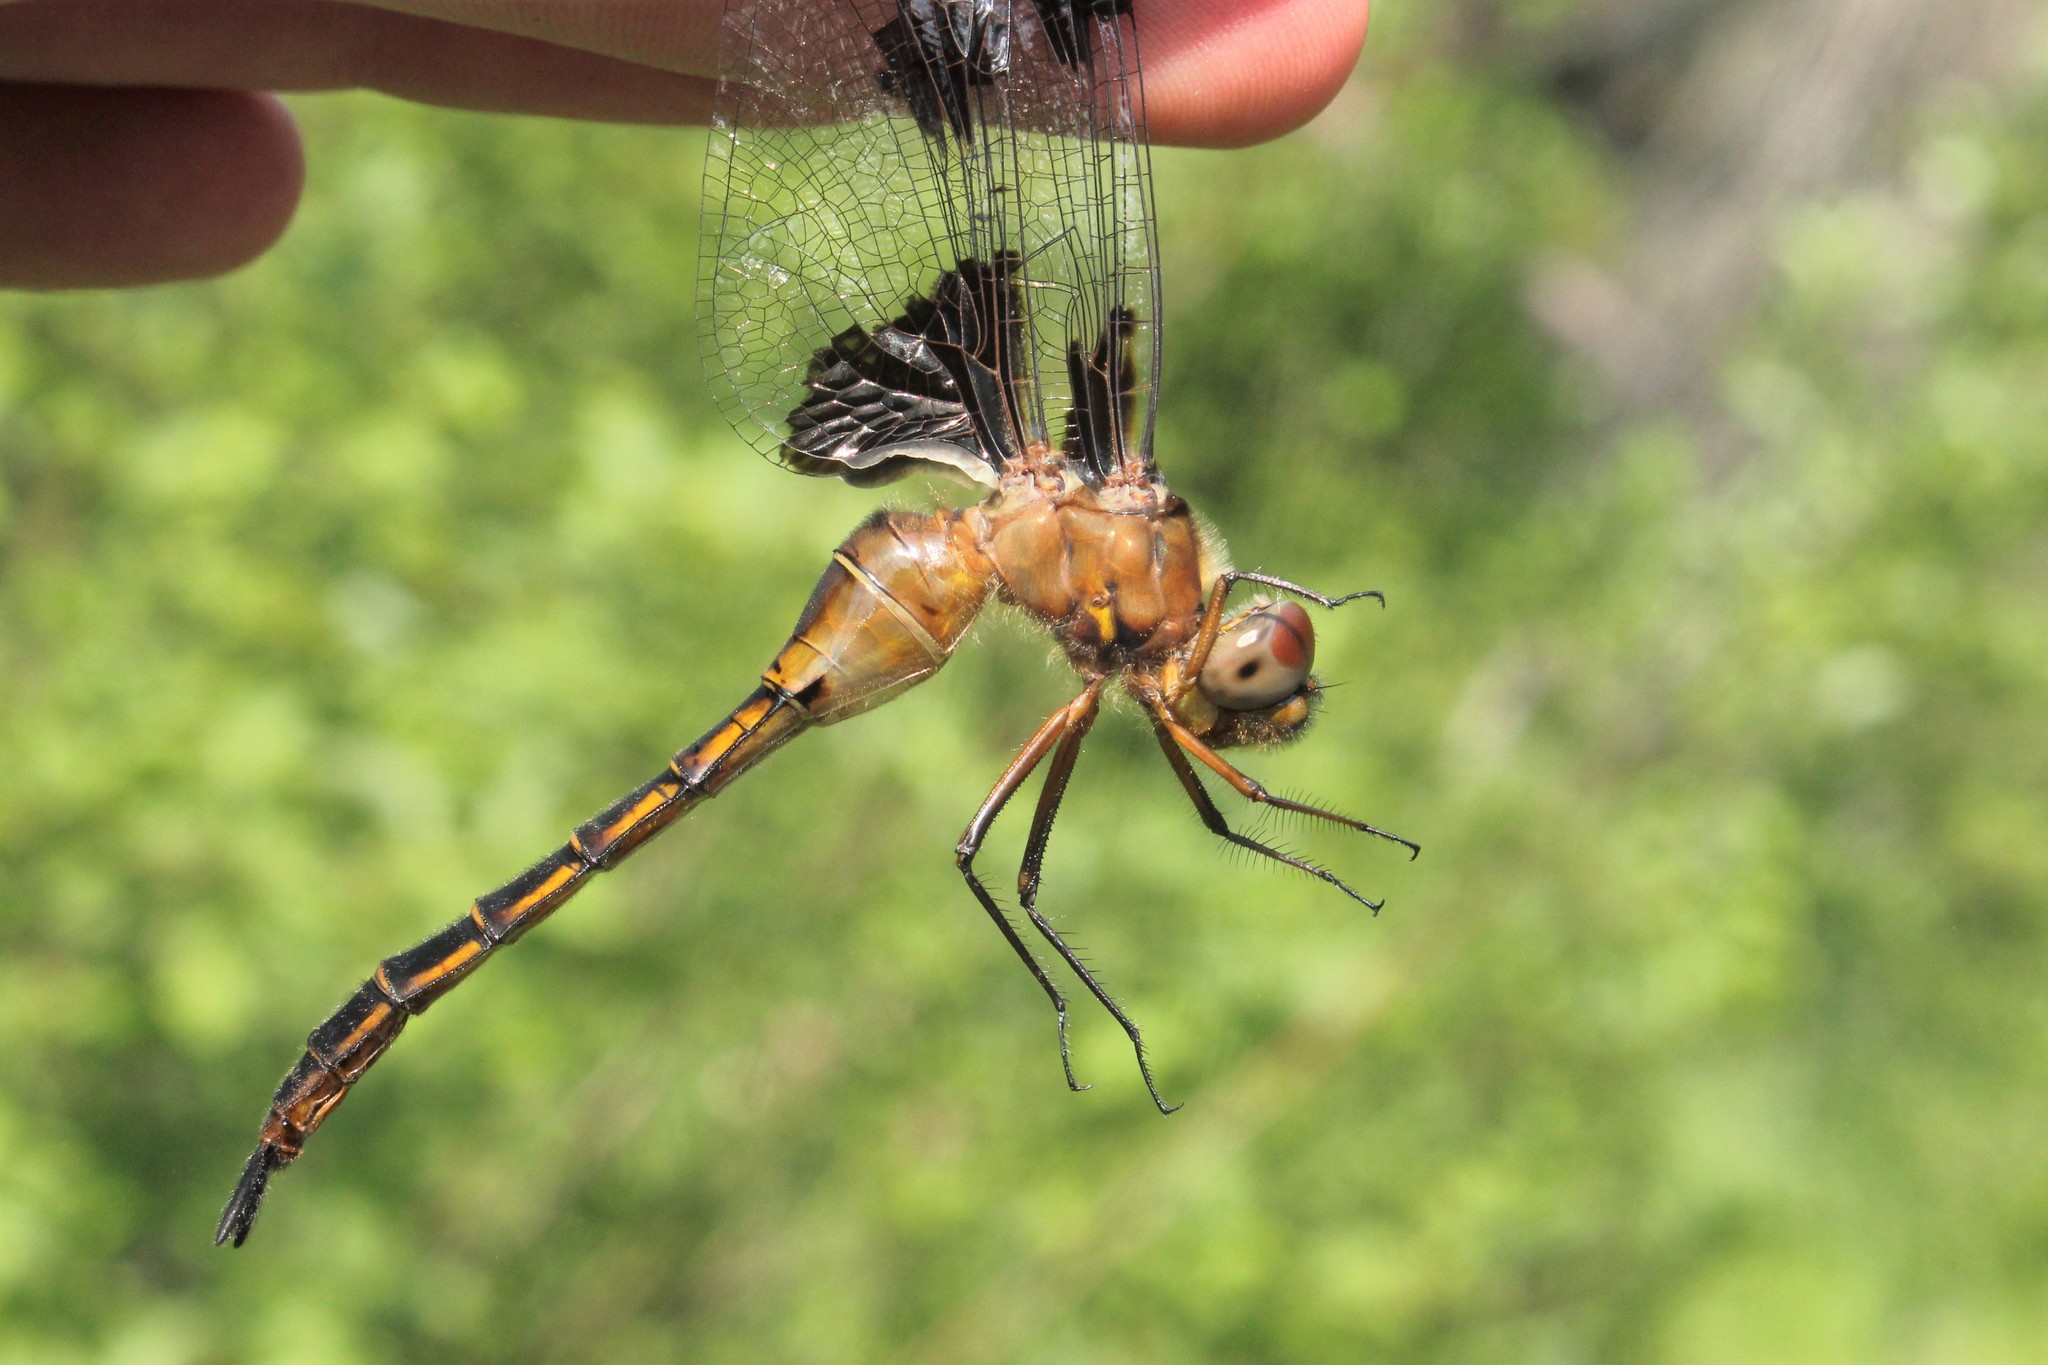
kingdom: Animalia
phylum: Arthropoda
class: Insecta
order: Odonata
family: Corduliidae
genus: Epitheca
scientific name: Epitheca princeps
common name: Prince baskettail
